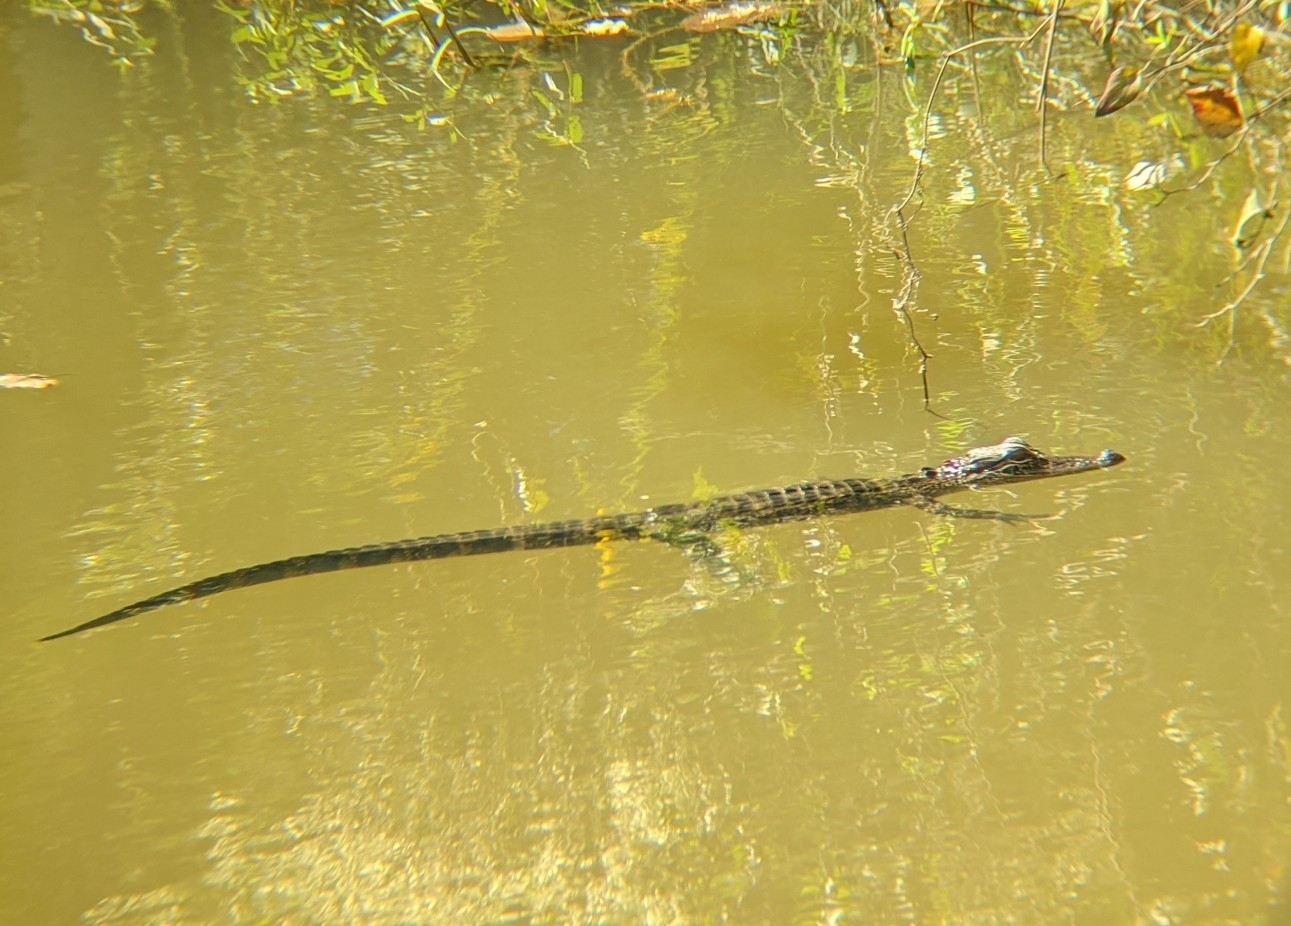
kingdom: Animalia
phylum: Chordata
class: Crocodylia
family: Alligatoridae
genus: Alligator
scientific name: Alligator mississippiensis
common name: American alligator
